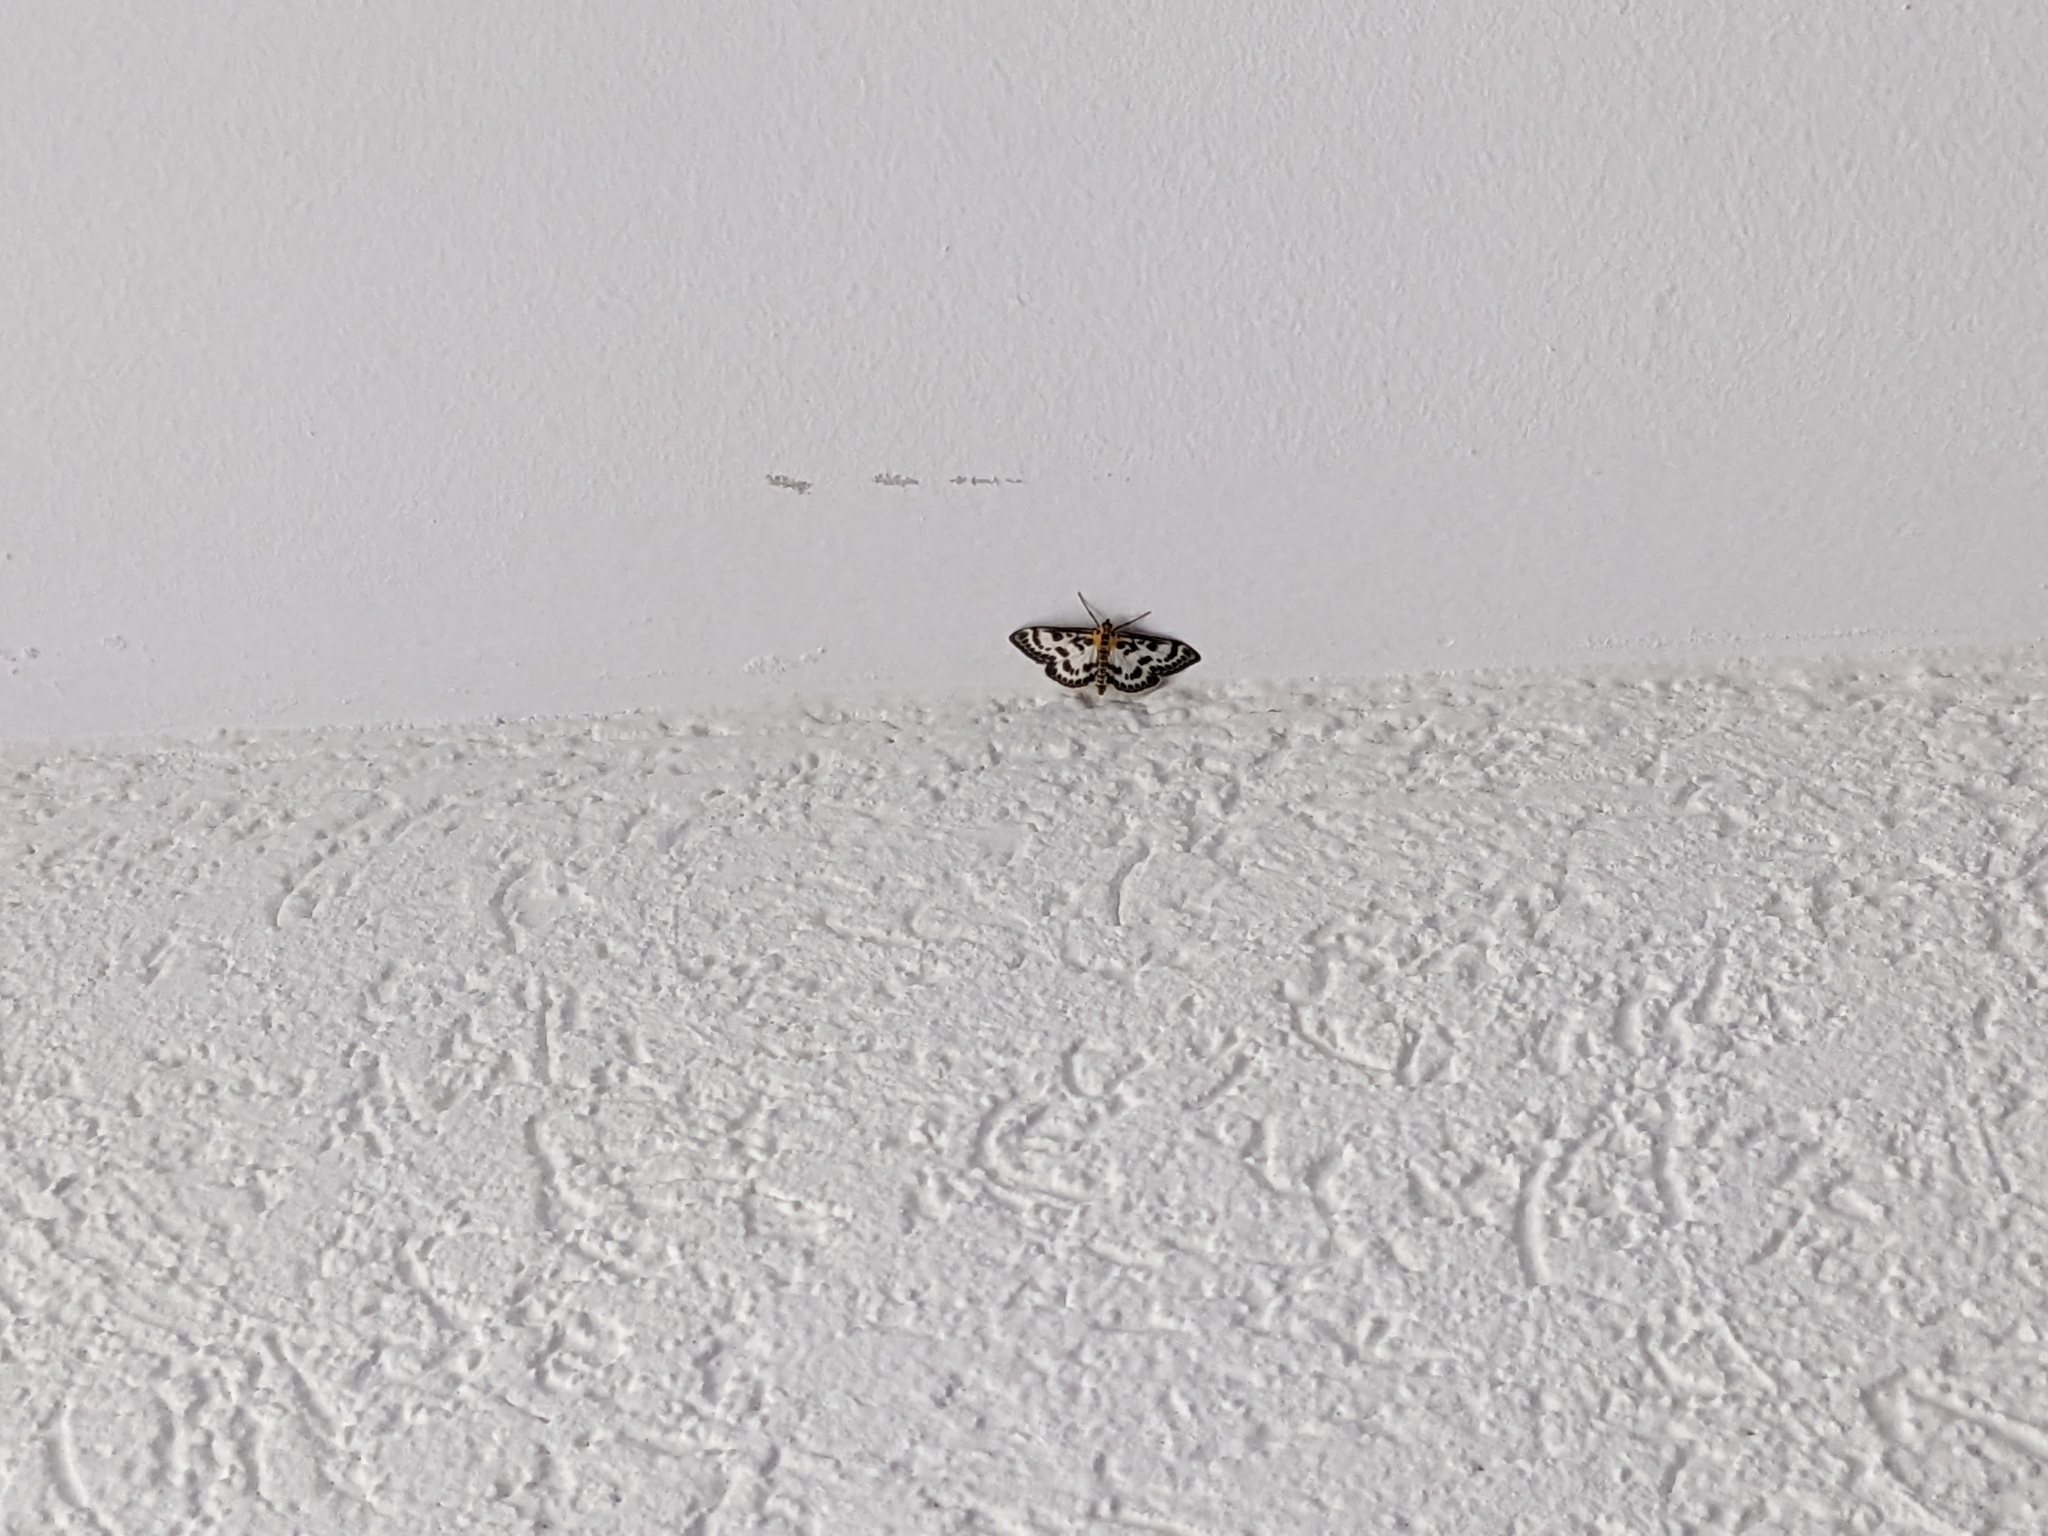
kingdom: Animalia
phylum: Arthropoda
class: Insecta
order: Lepidoptera
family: Crambidae
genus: Anania
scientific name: Anania hortulata
